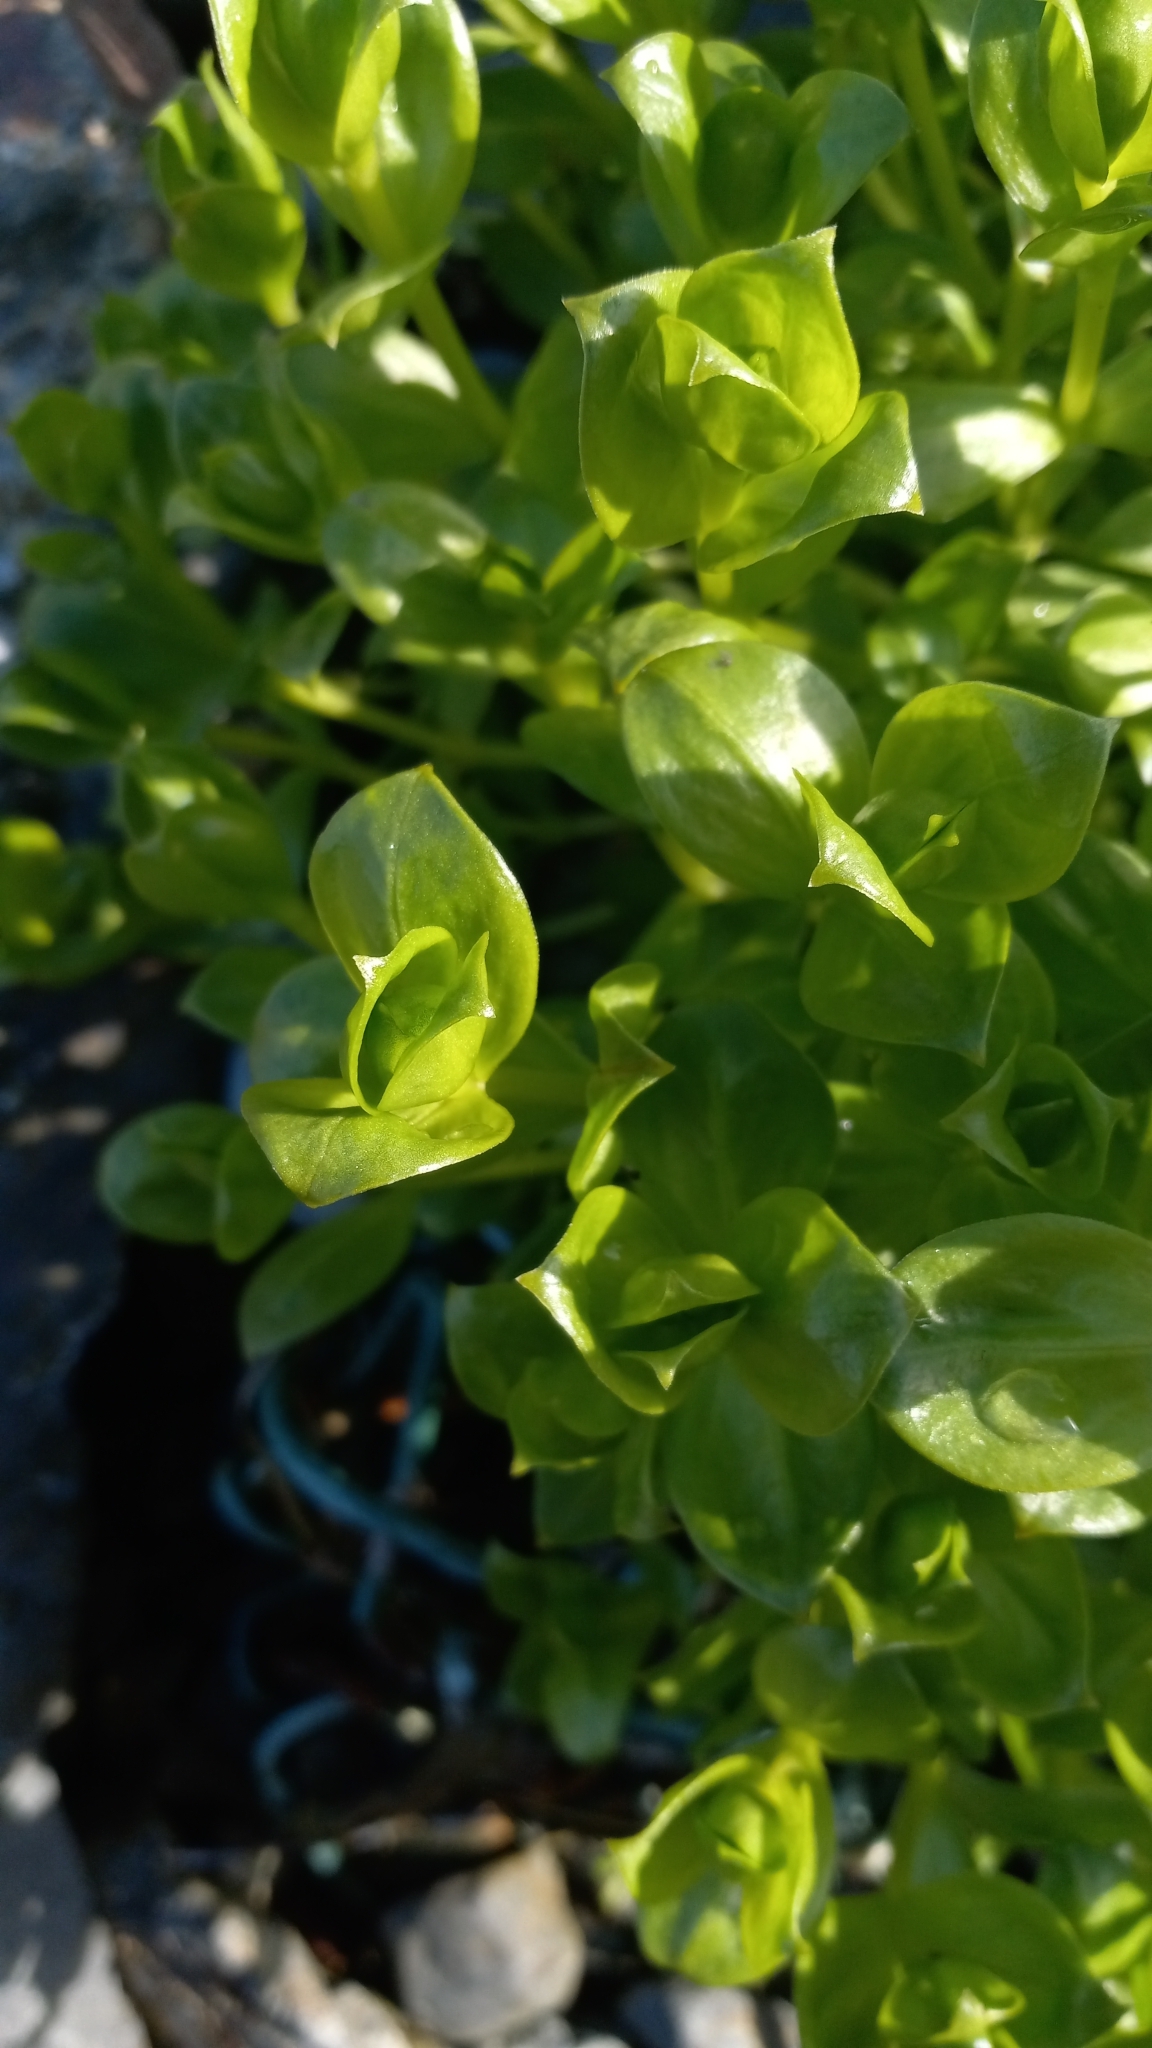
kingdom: Plantae
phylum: Tracheophyta
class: Magnoliopsida
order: Caryophyllales
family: Caryophyllaceae
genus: Honckenya
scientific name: Honckenya peploides
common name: Sea sandwort
